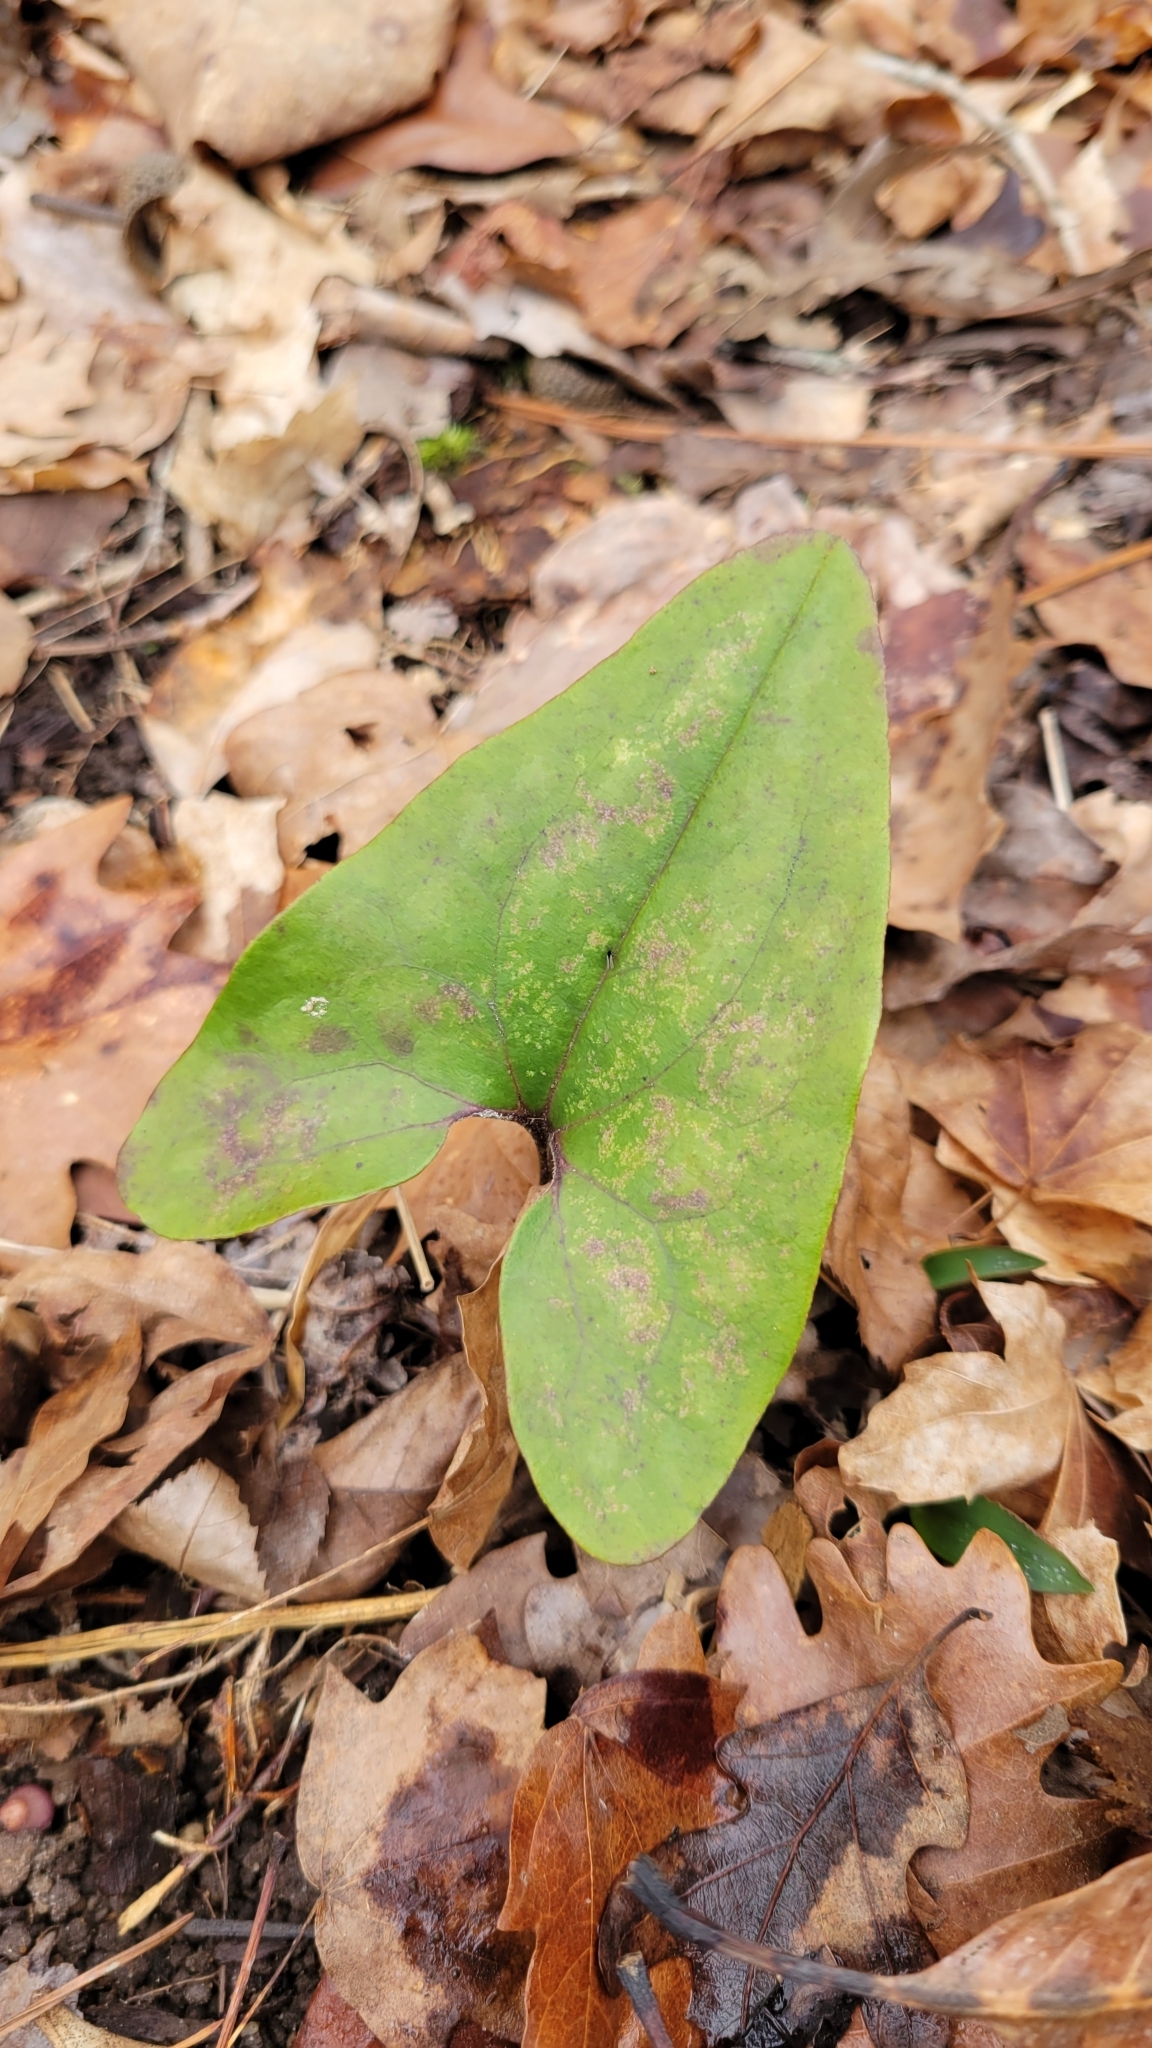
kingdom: Plantae
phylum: Tracheophyta
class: Magnoliopsida
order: Piperales
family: Aristolochiaceae
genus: Hexastylis
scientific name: Hexastylis arifolia
